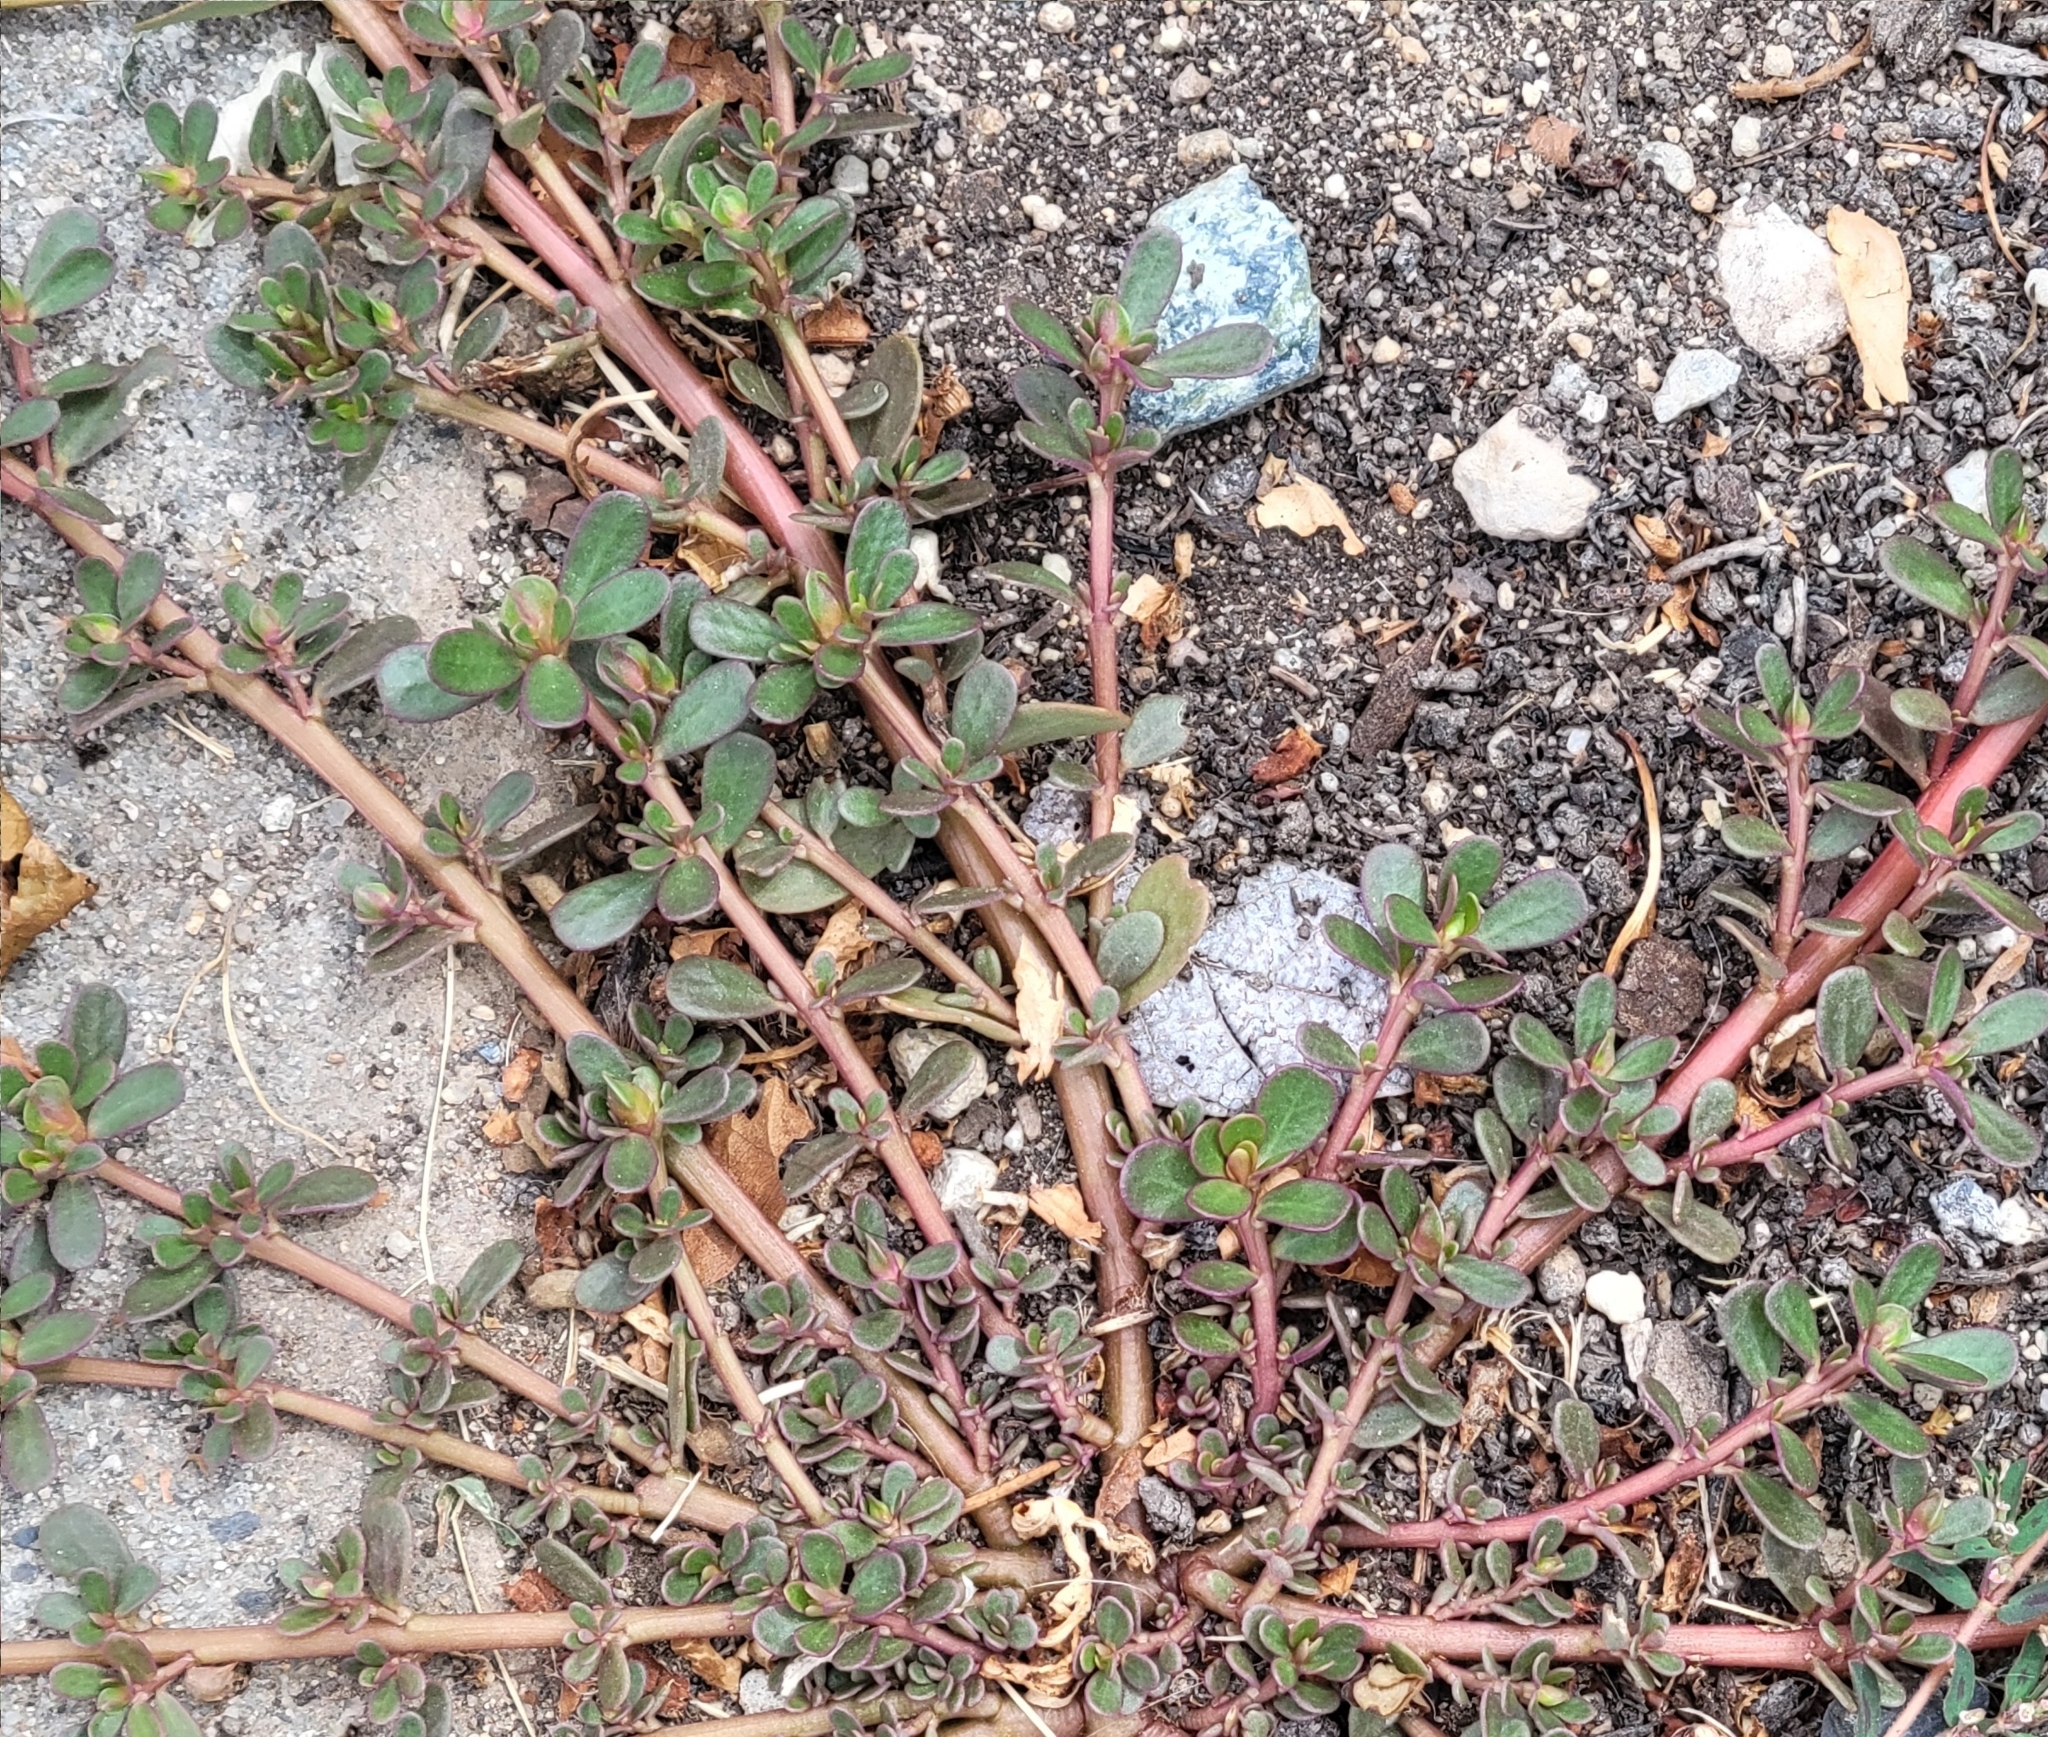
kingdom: Plantae
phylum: Tracheophyta
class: Magnoliopsida
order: Caryophyllales
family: Portulacaceae
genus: Portulaca
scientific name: Portulaca oleracea
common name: Common purslane
